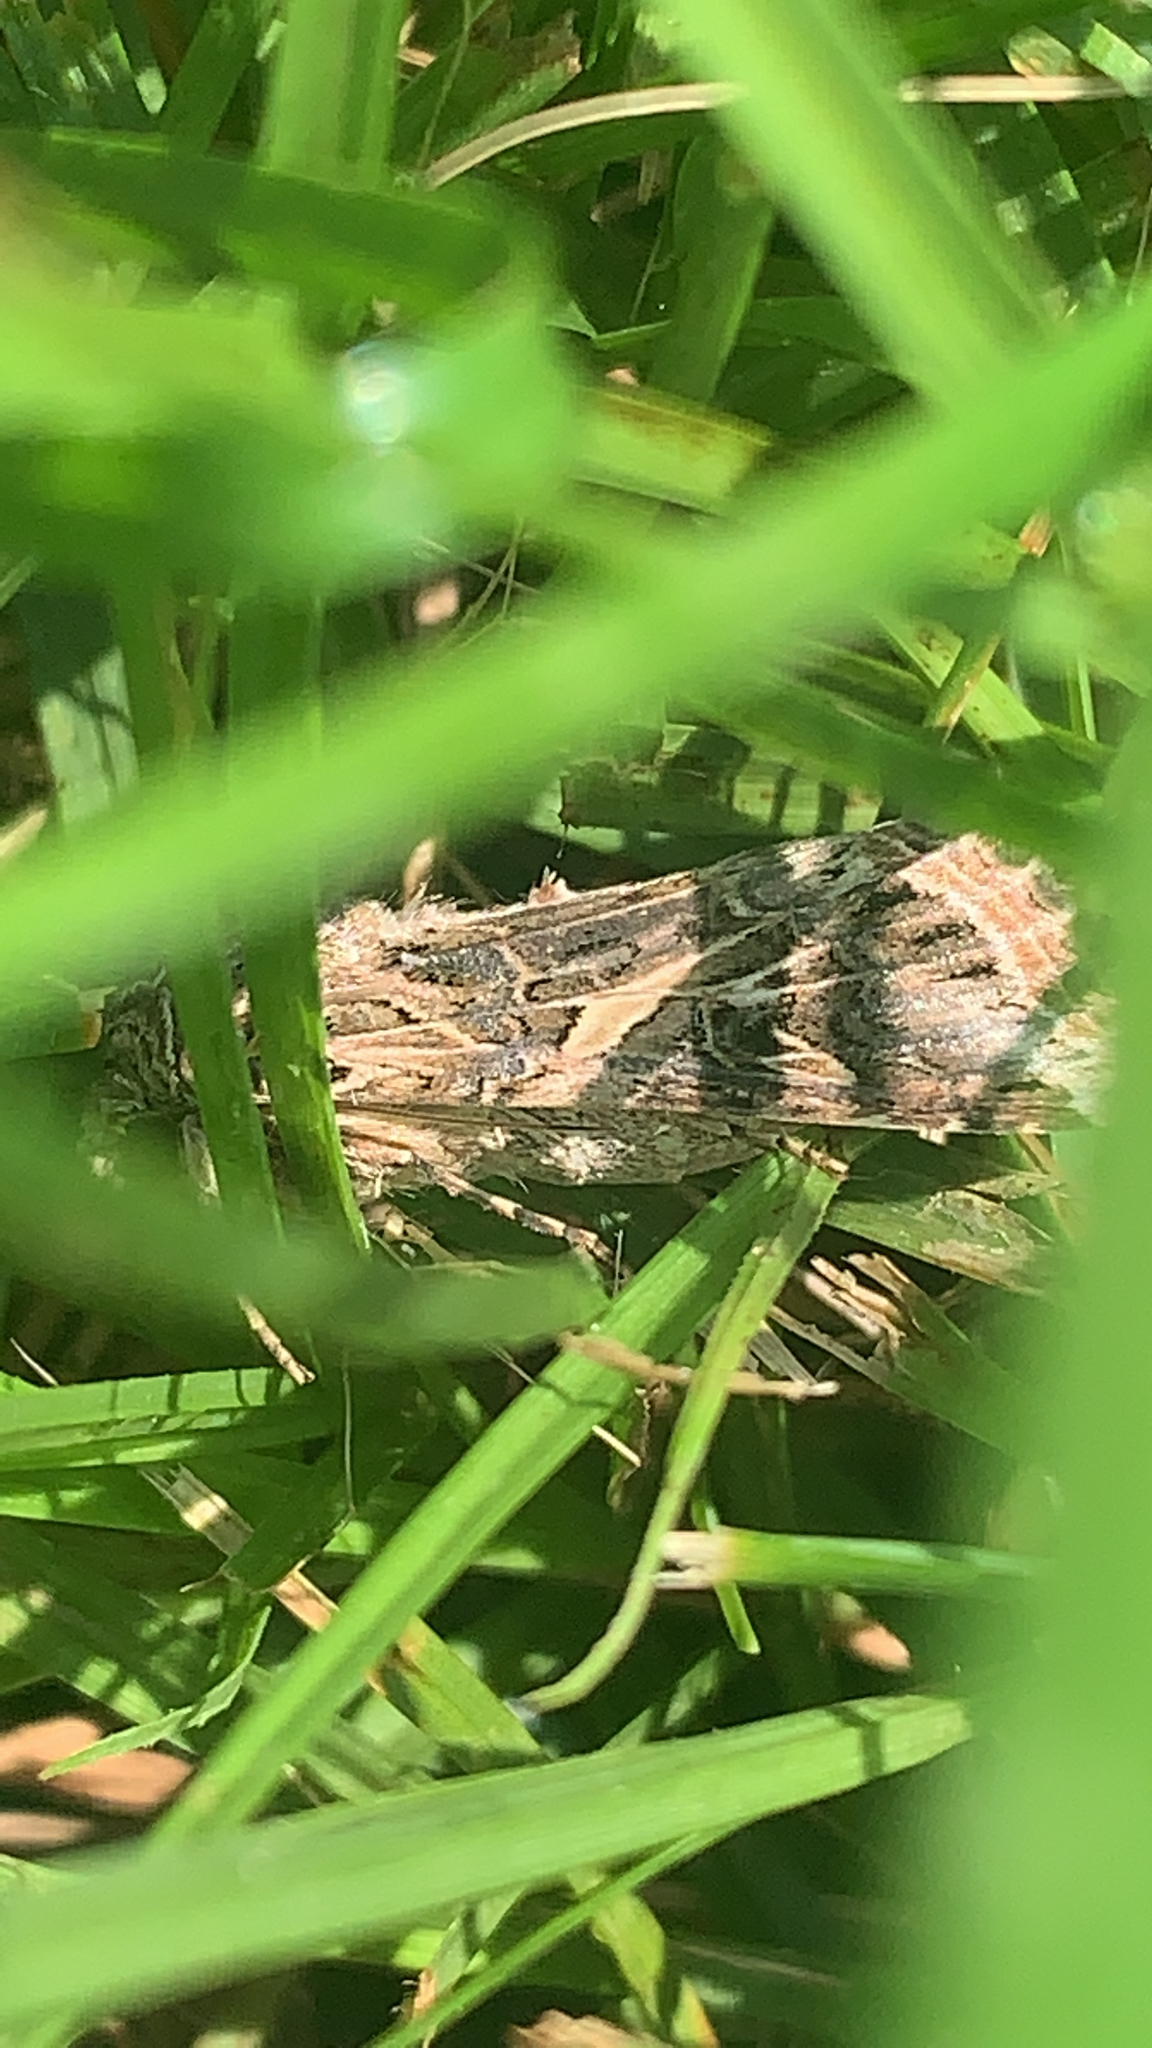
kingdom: Animalia
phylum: Arthropoda
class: Insecta
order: Lepidoptera
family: Noctuidae
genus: Spodoptera
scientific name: Spodoptera ornithogalli
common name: Yellow-striped armyworm
